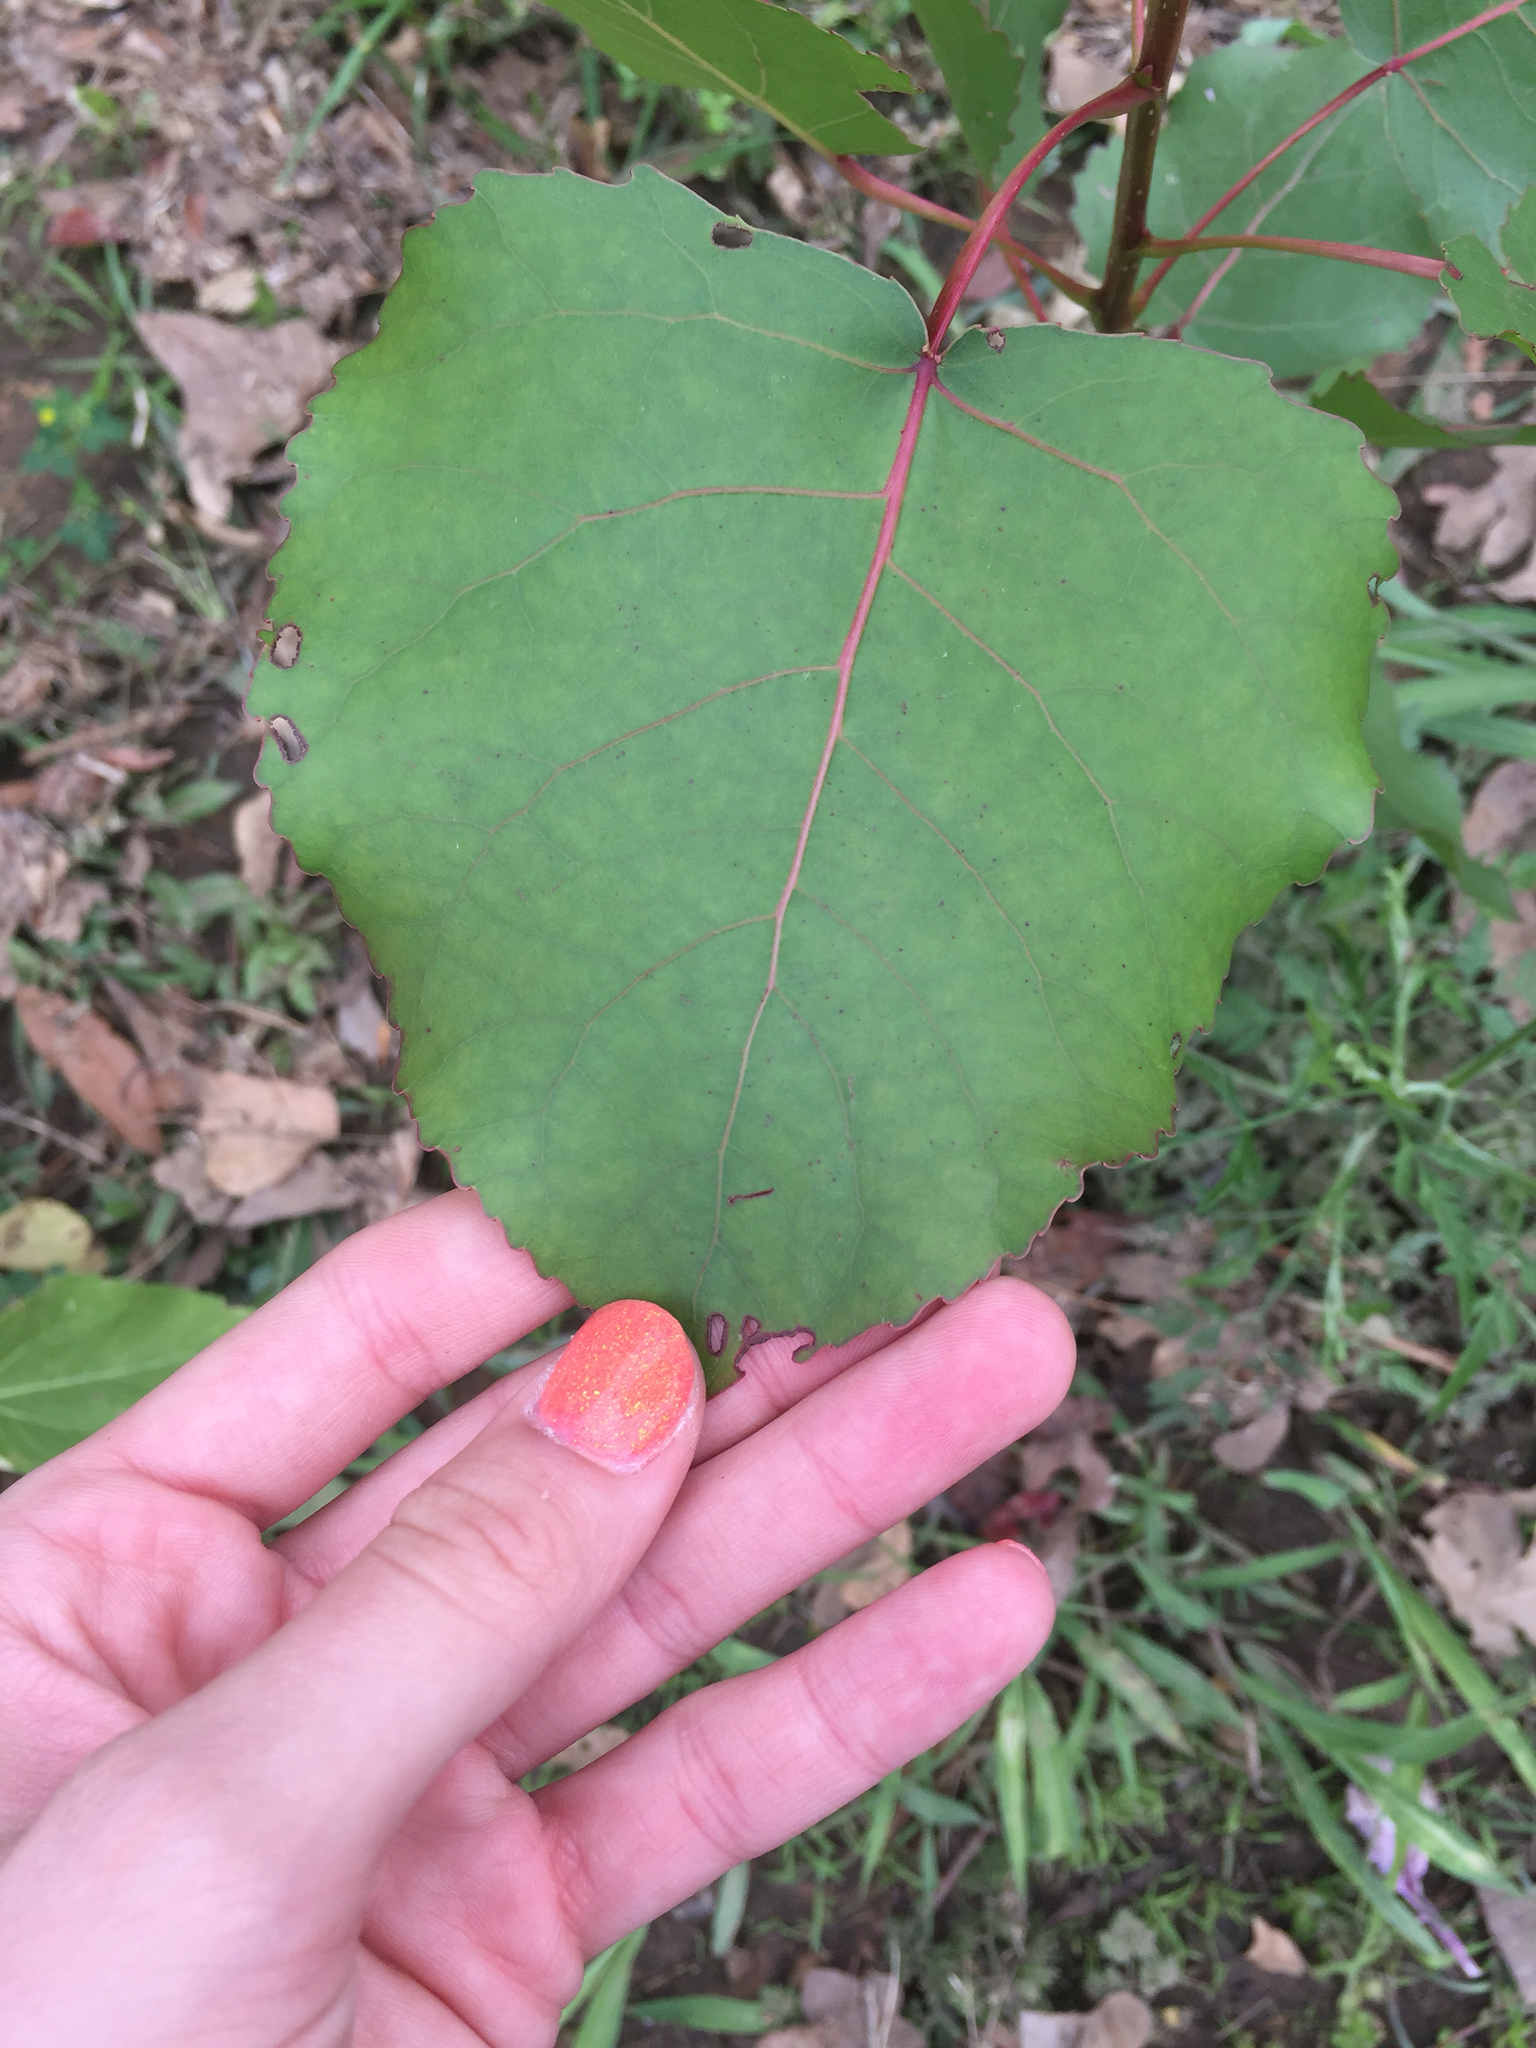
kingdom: Plantae
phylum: Tracheophyta
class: Magnoliopsida
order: Malpighiales
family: Salicaceae
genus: Populus
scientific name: Populus deltoides
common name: Eastern cottonwood
